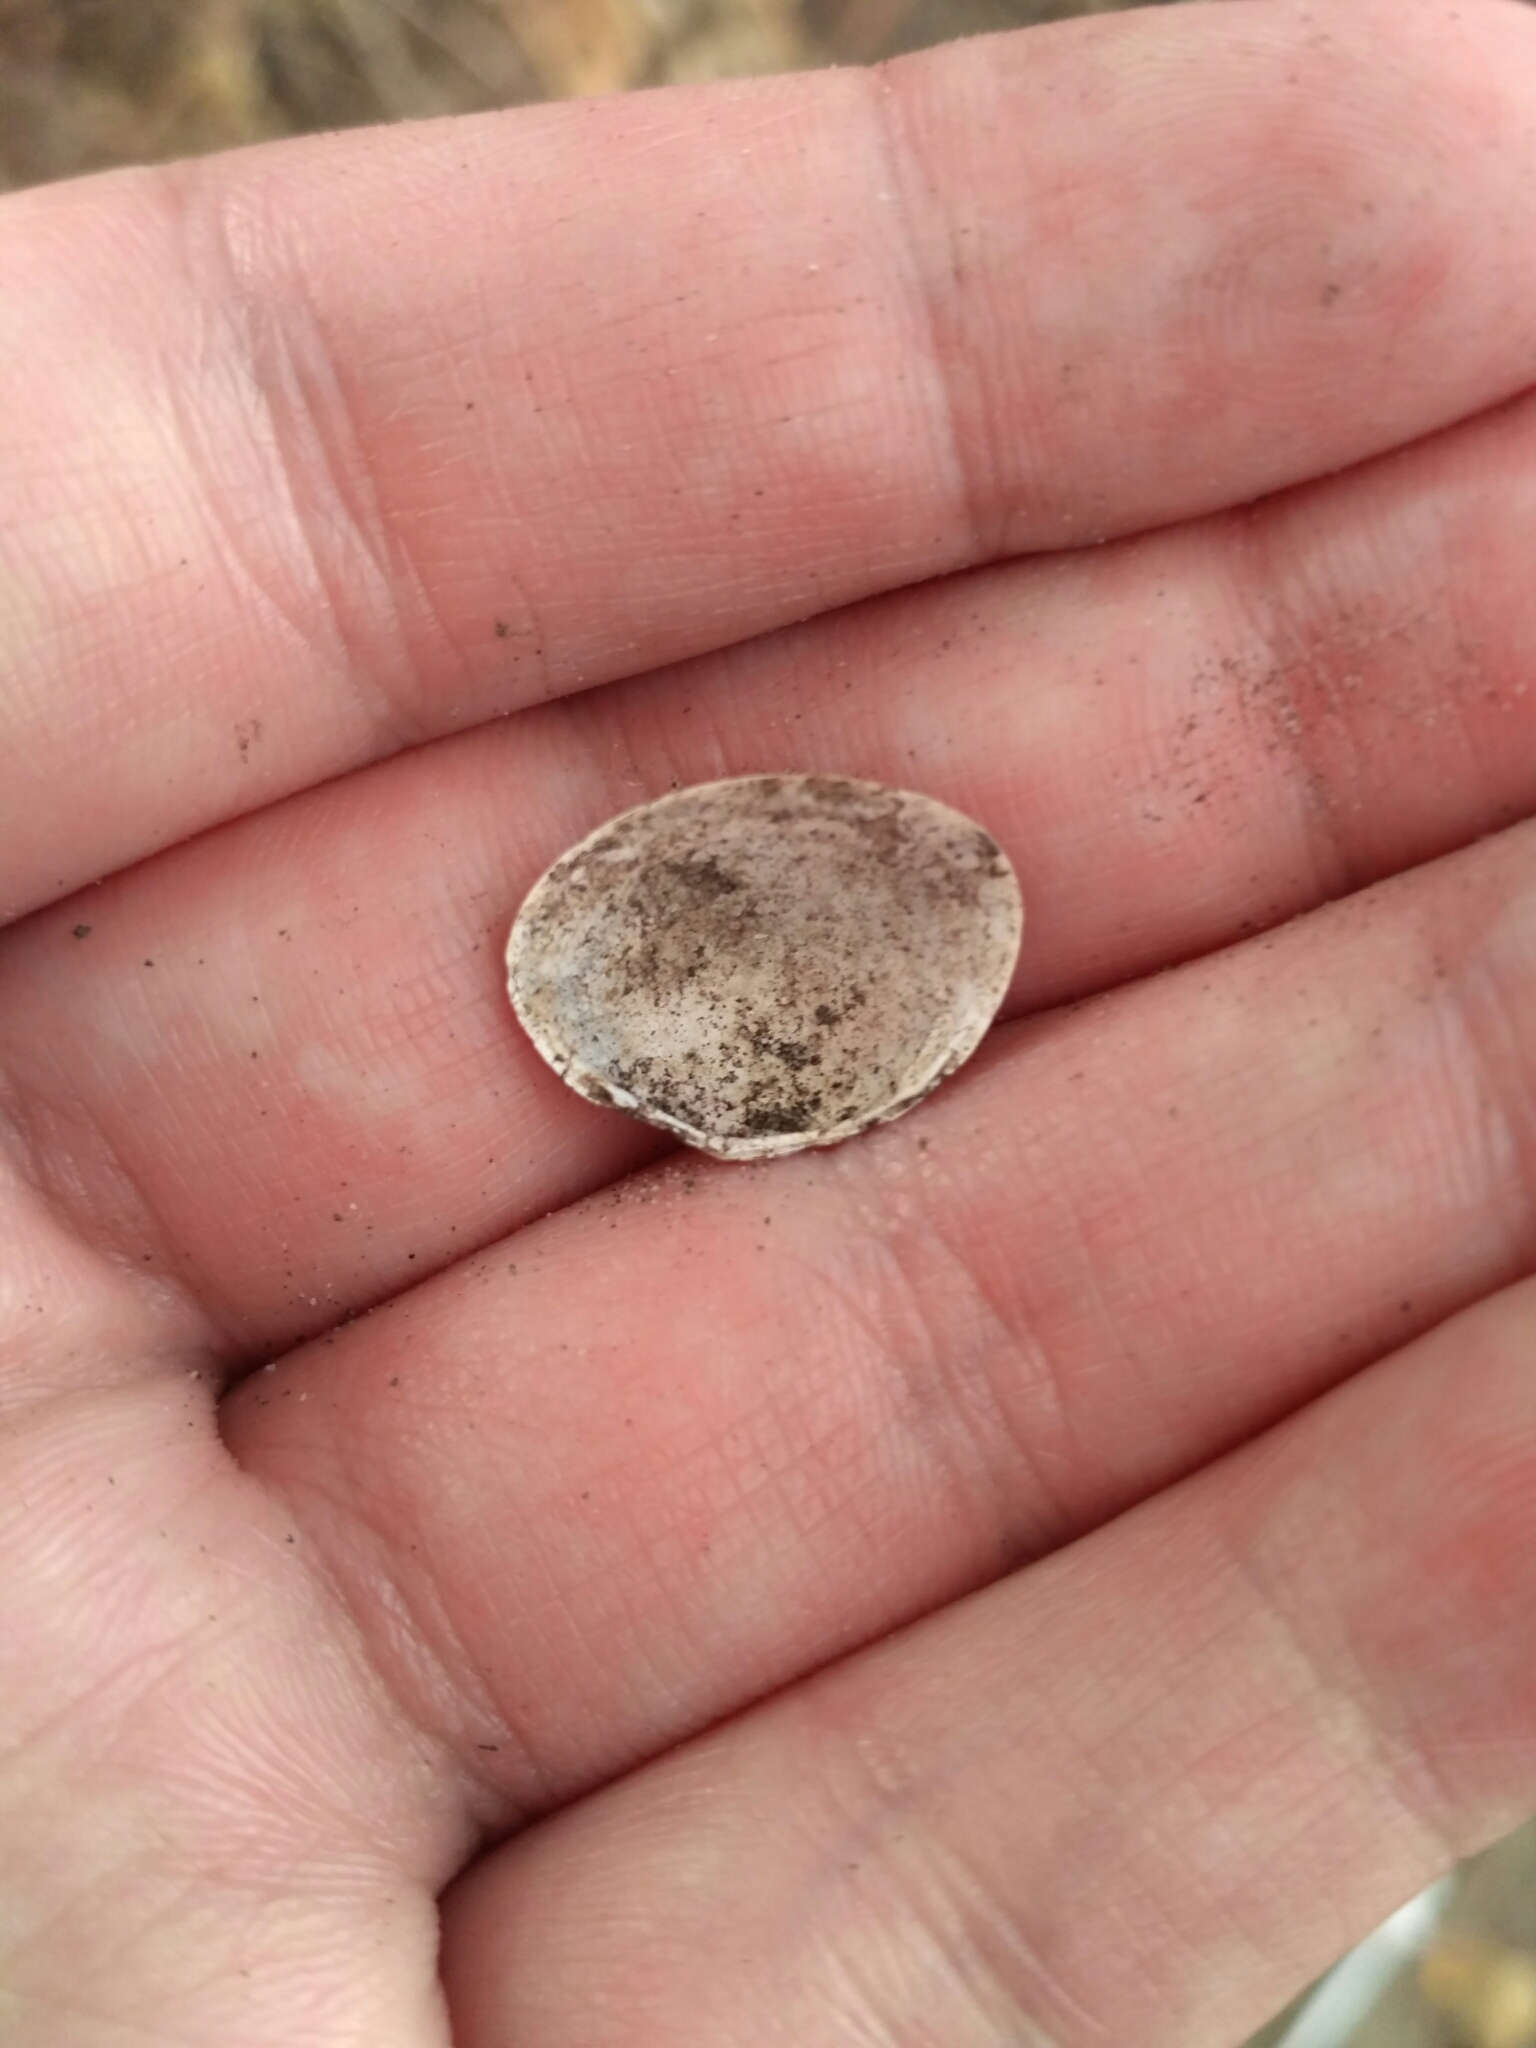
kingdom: Animalia
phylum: Mollusca
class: Bivalvia
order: Sphaeriida
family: Sphaeriidae
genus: Sphaerium
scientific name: Sphaerium rivicola
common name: Nut orb mussel
